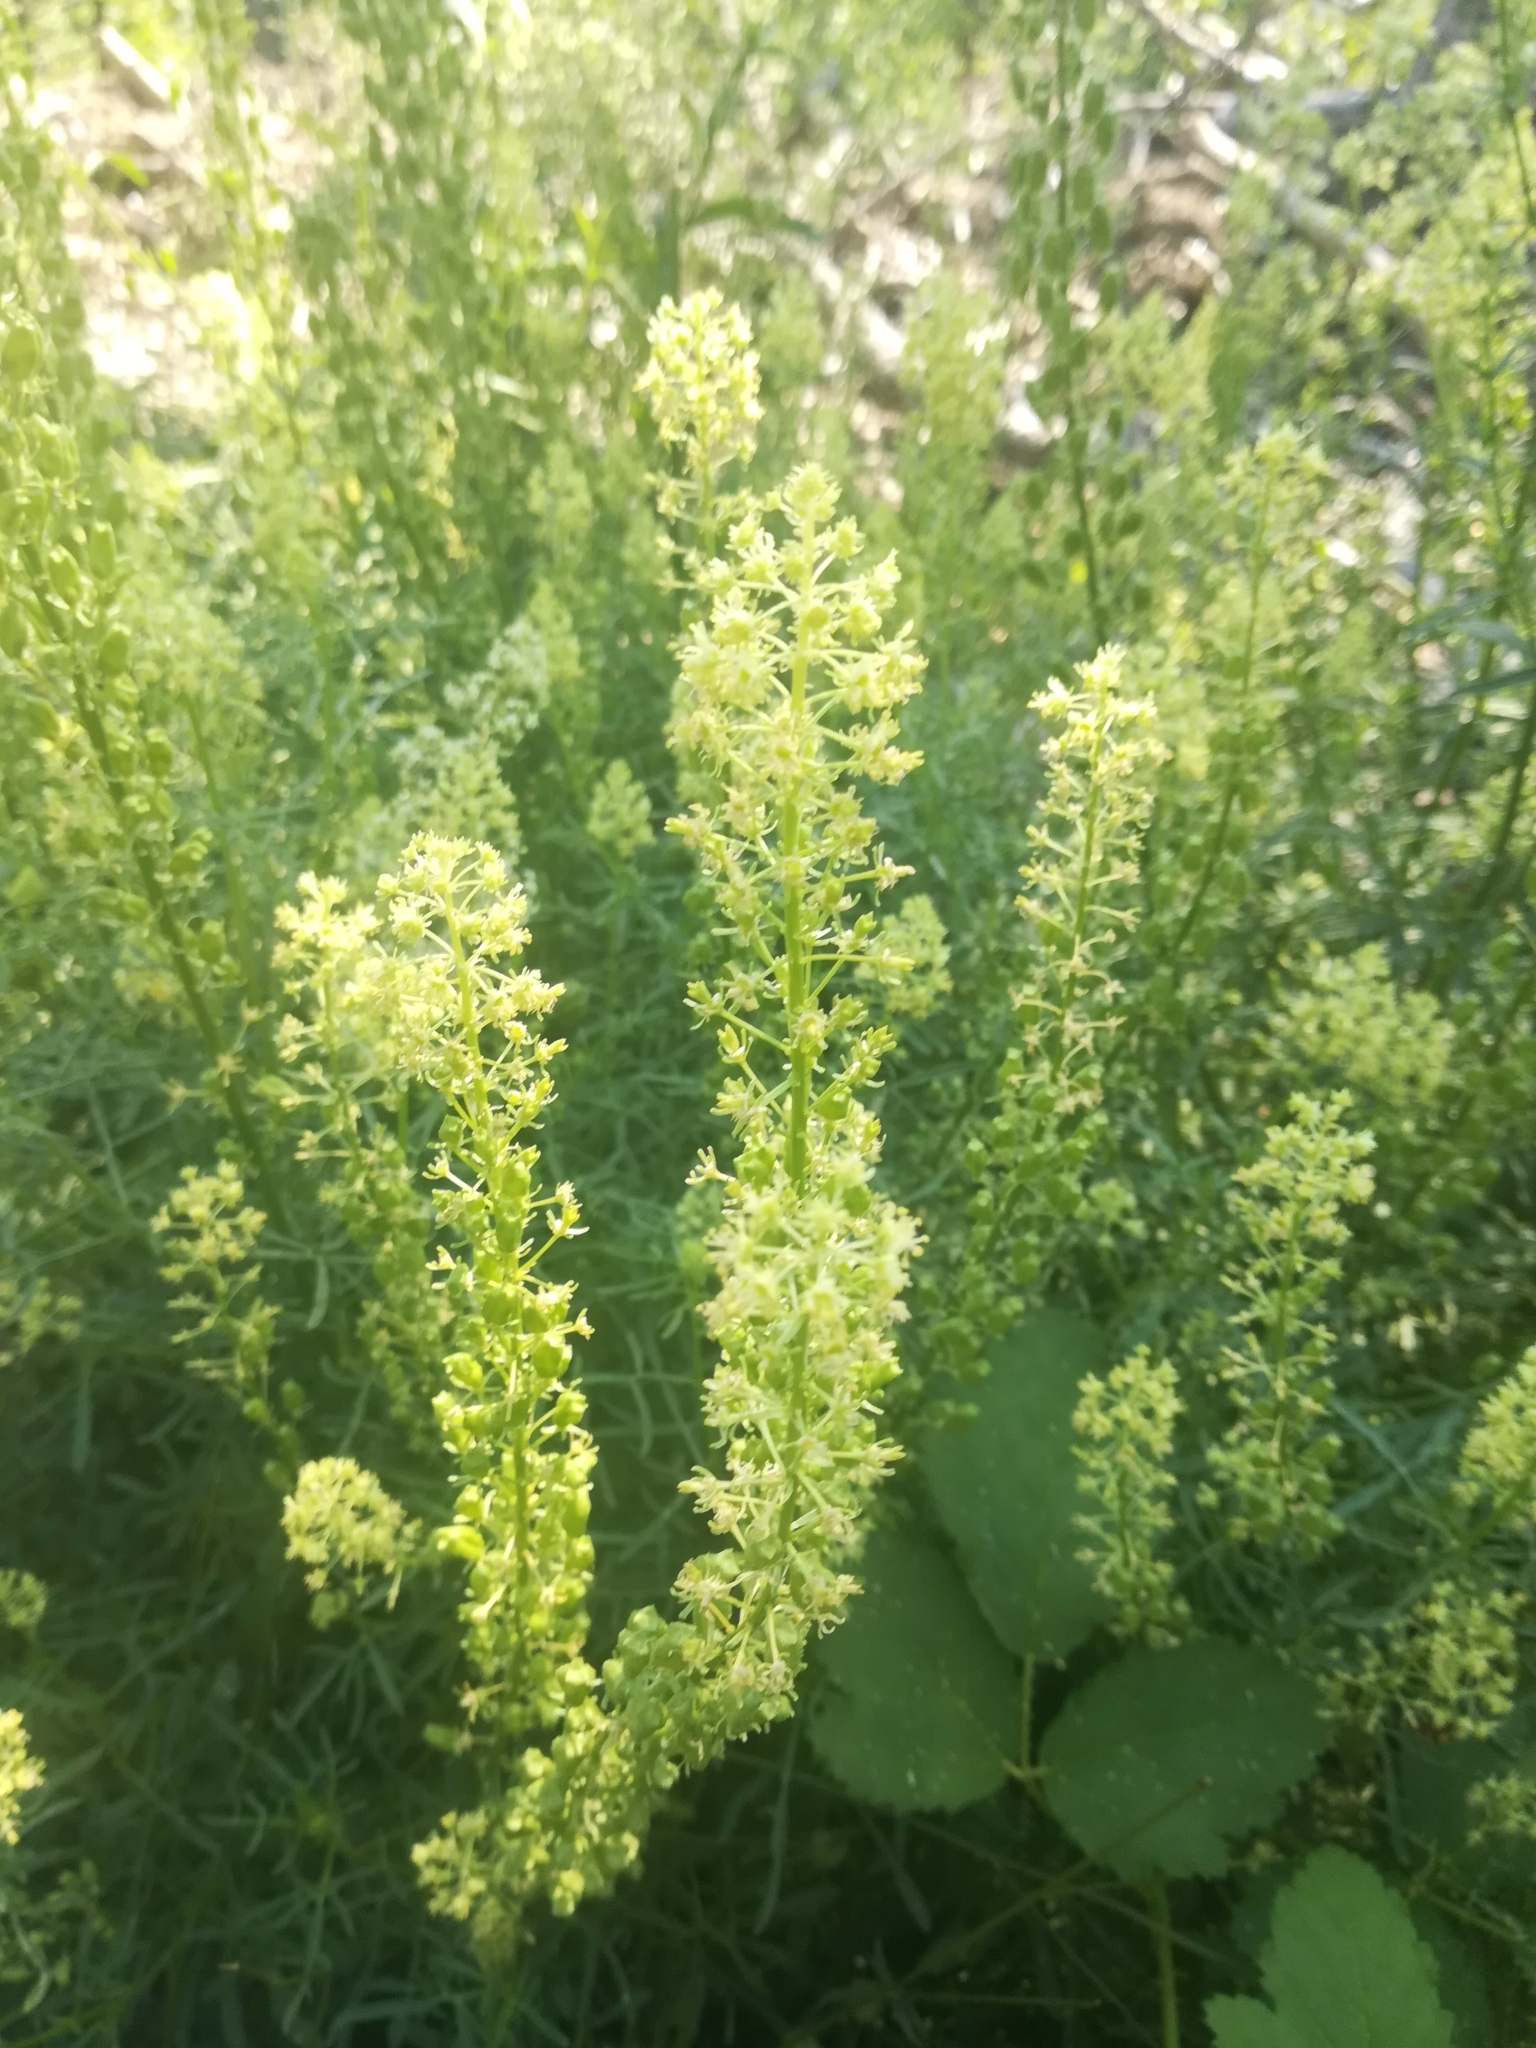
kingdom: Plantae
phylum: Tracheophyta
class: Magnoliopsida
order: Brassicales
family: Resedaceae
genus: Reseda
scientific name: Reseda lutea
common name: Wild mignonette
